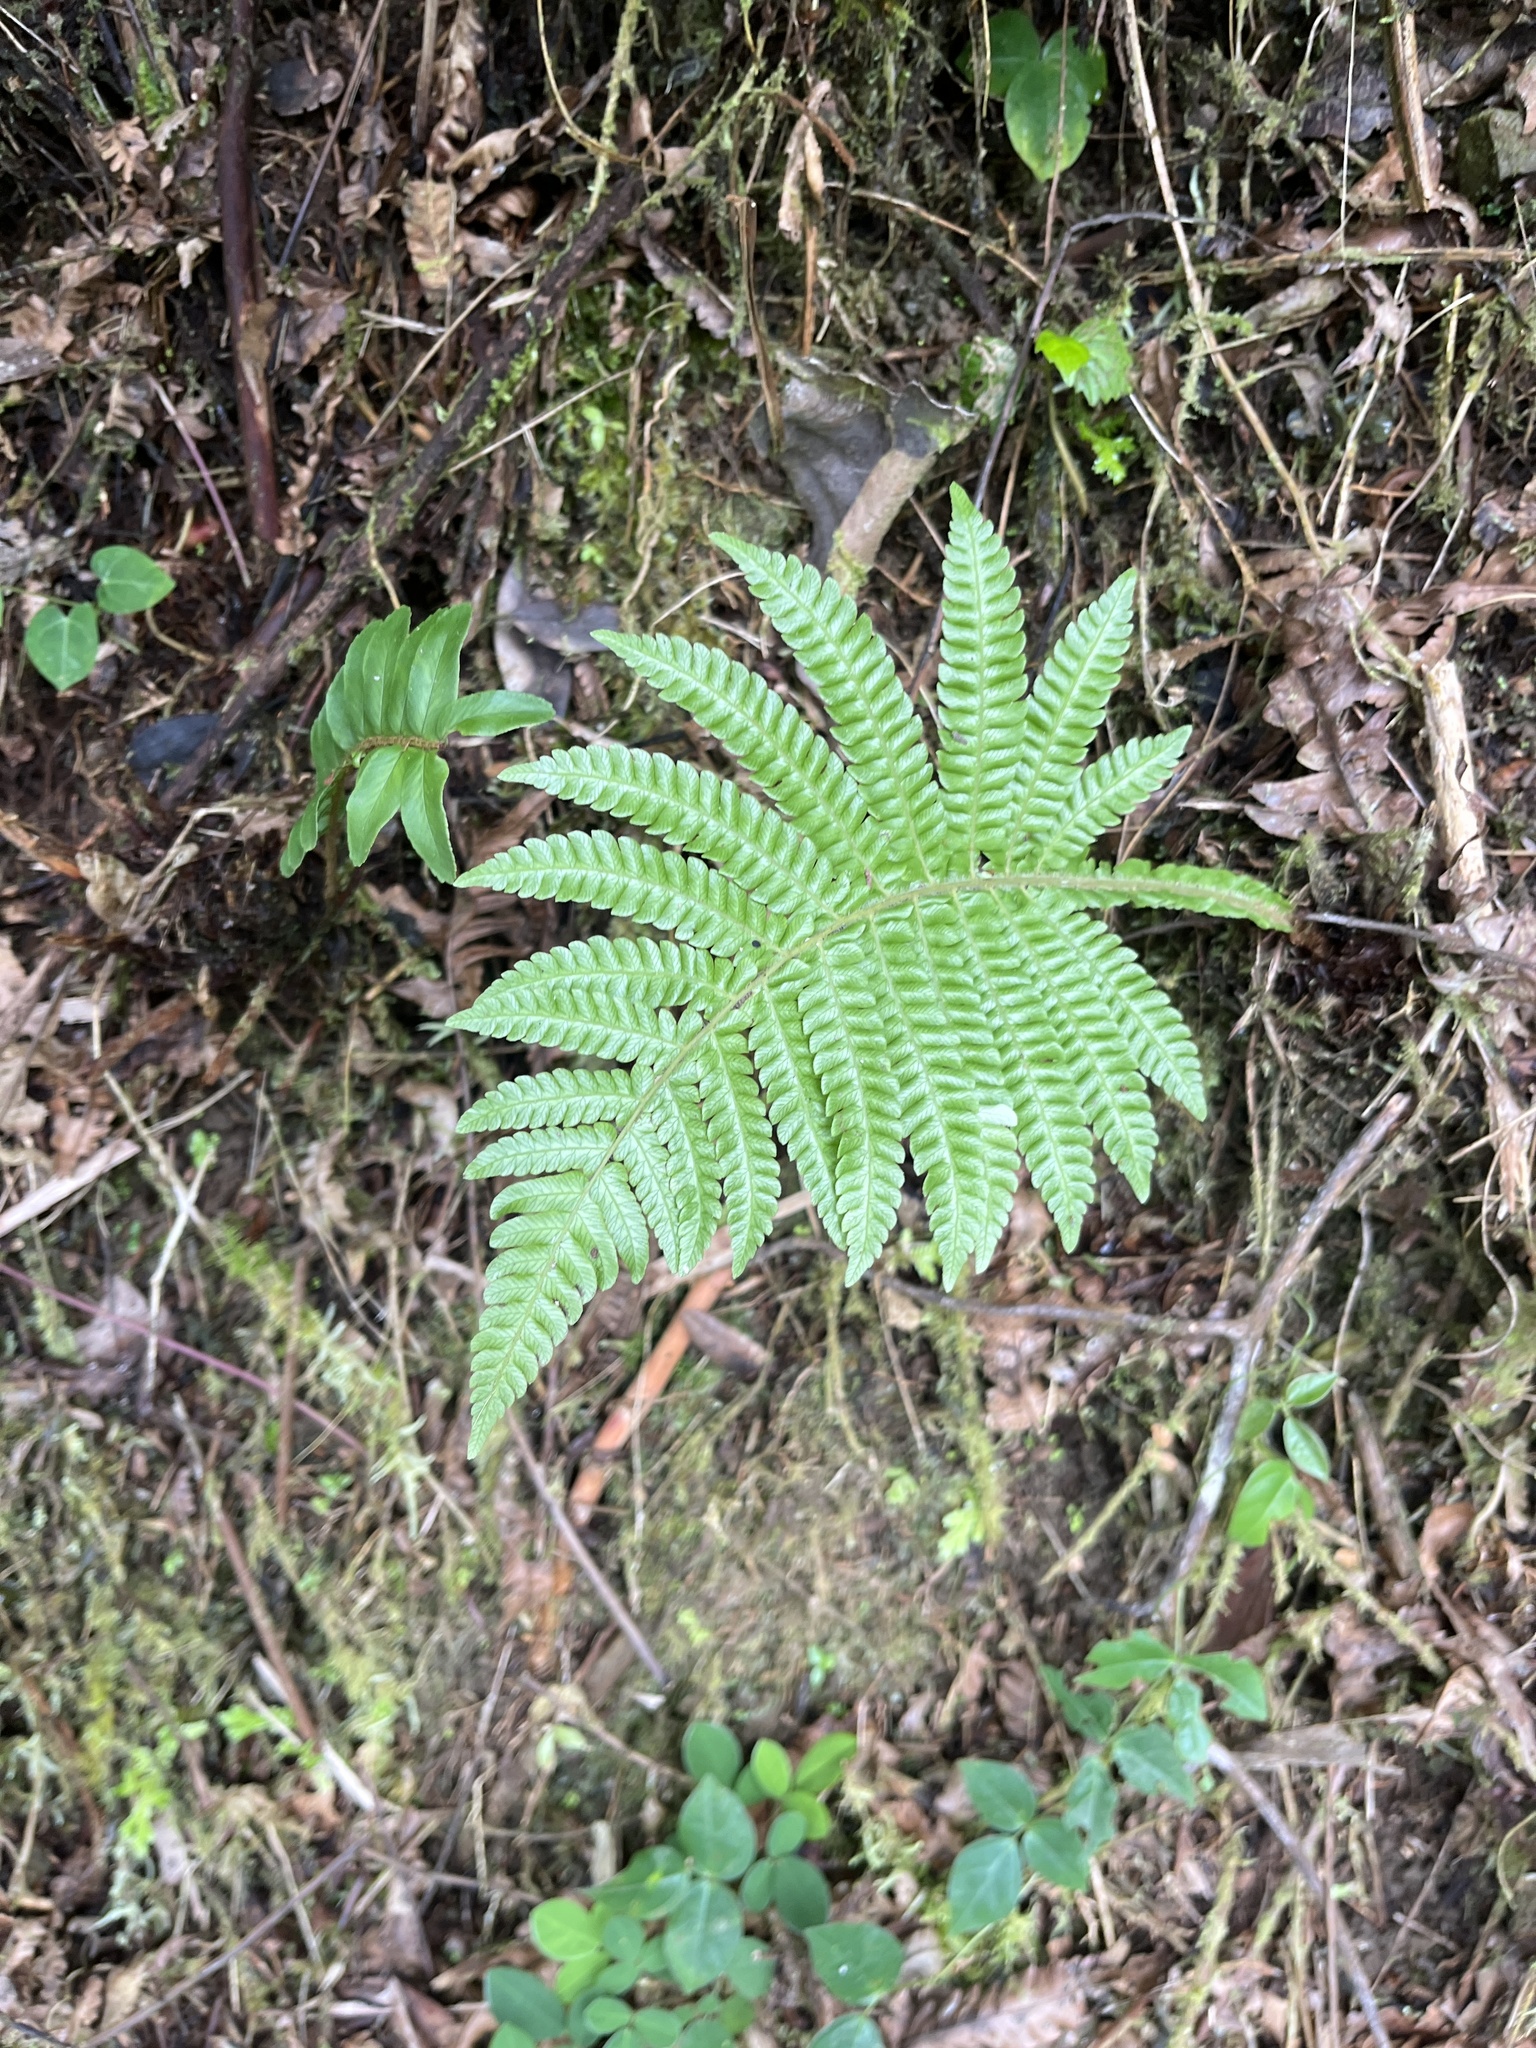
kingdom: Plantae
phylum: Tracheophyta
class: Polypodiopsida
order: Polypodiales
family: Thelypteridaceae
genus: Steiropteris
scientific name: Steiropteris deltoidea
